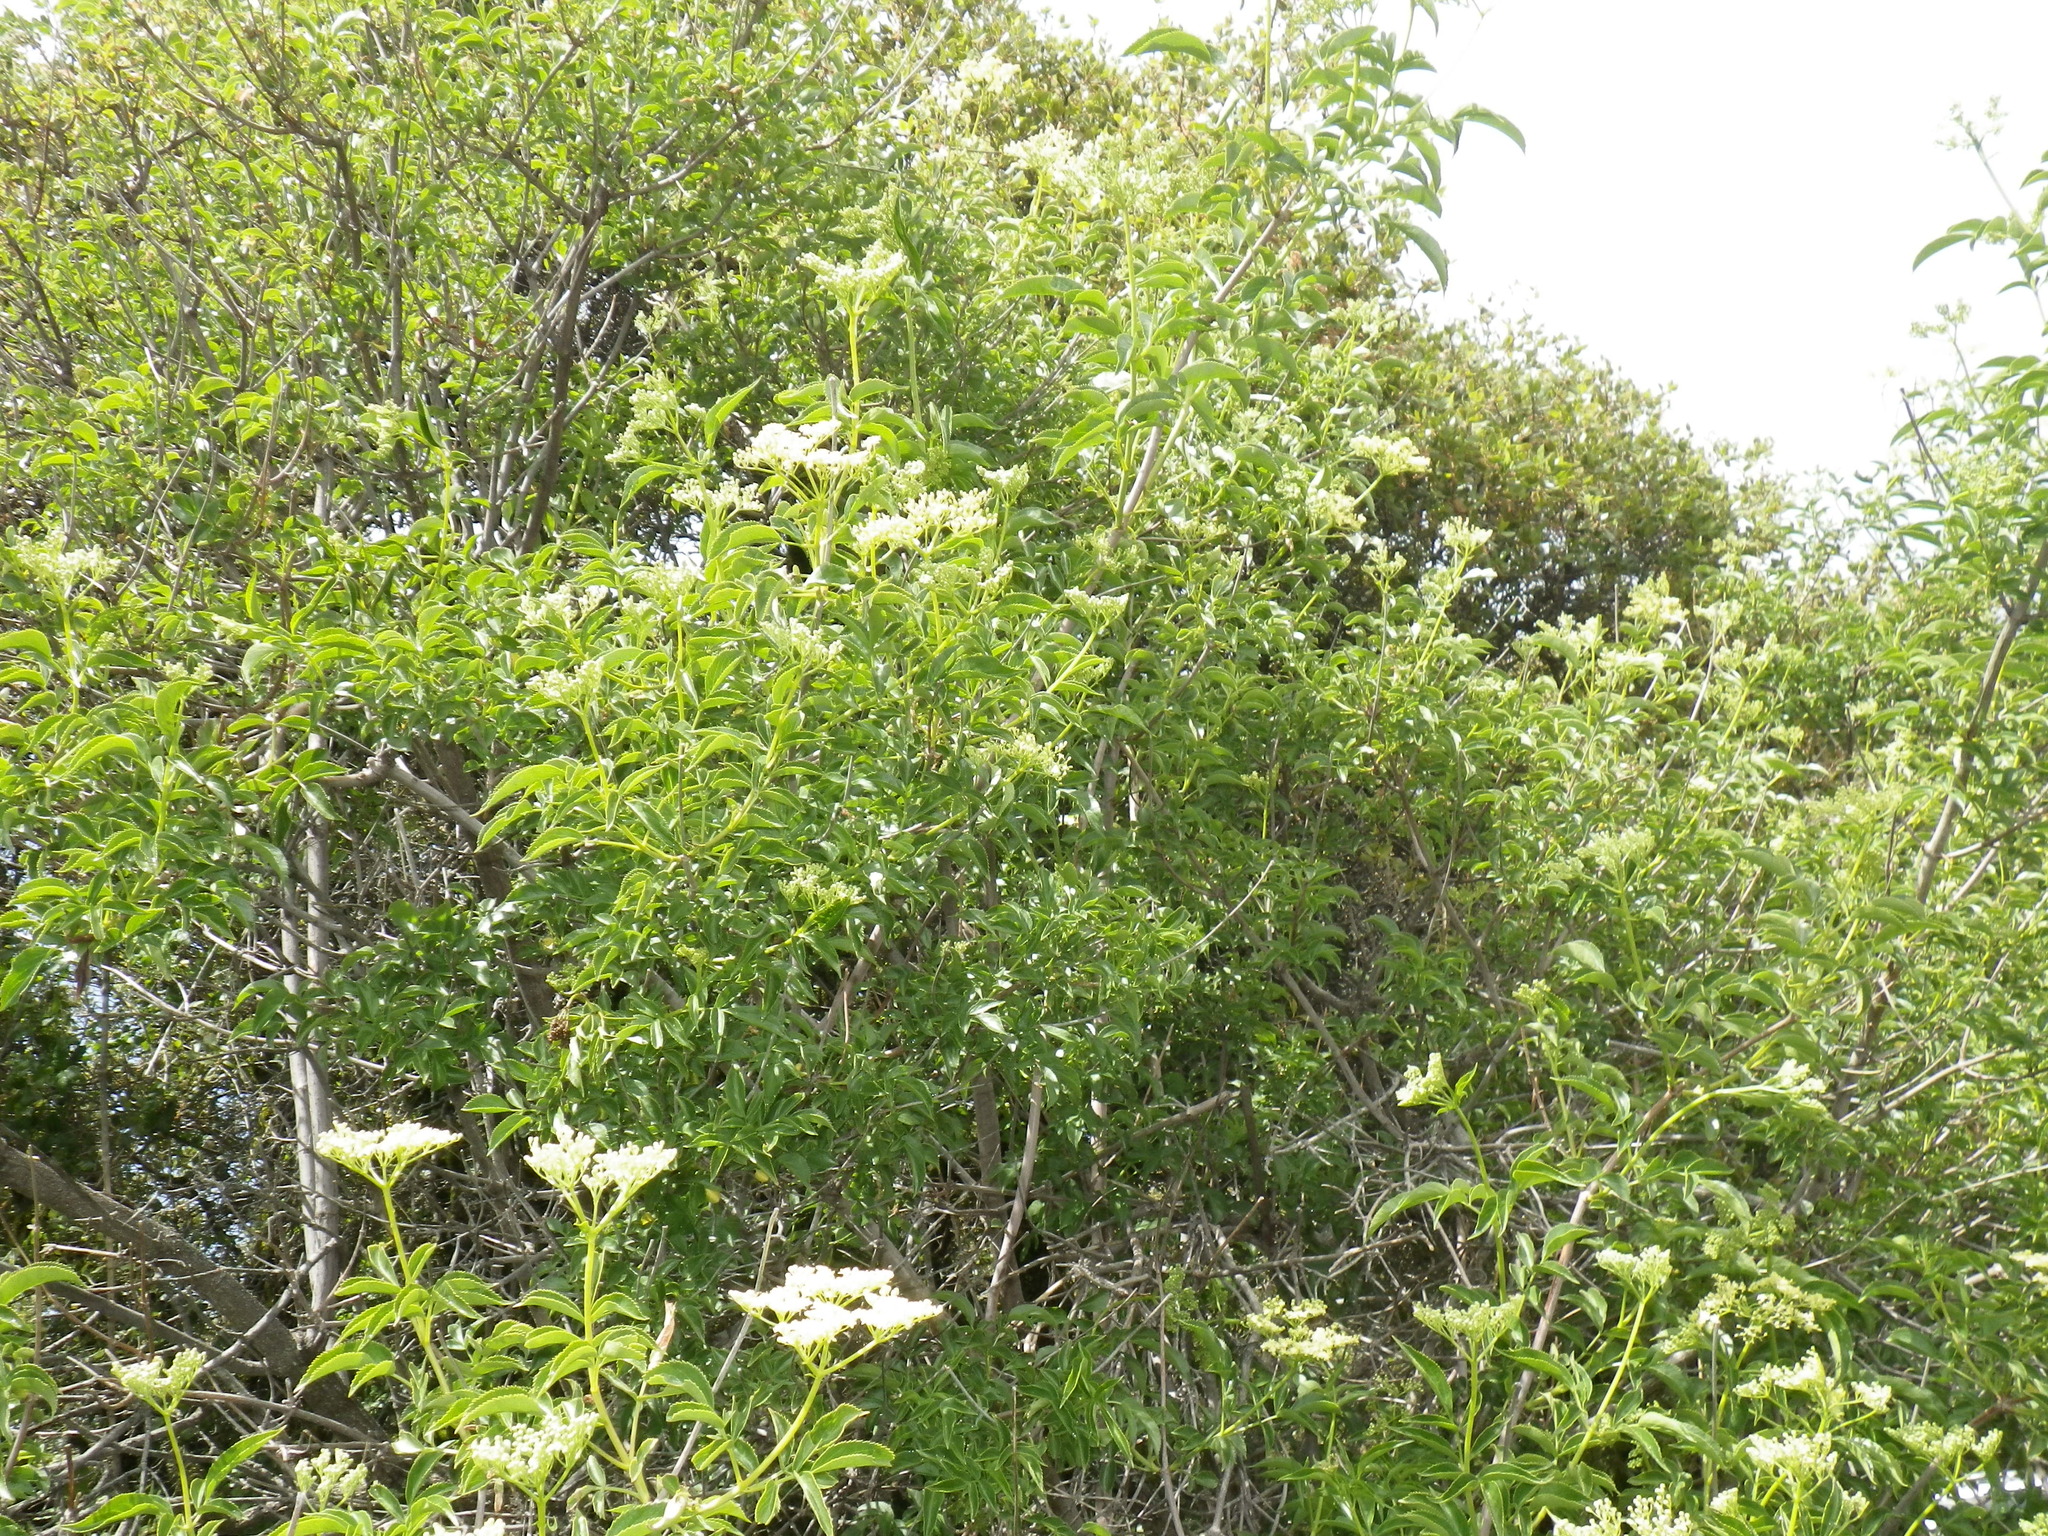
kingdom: Plantae
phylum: Tracheophyta
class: Magnoliopsida
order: Dipsacales
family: Viburnaceae
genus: Sambucus
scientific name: Sambucus cerulea
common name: Blue elder
